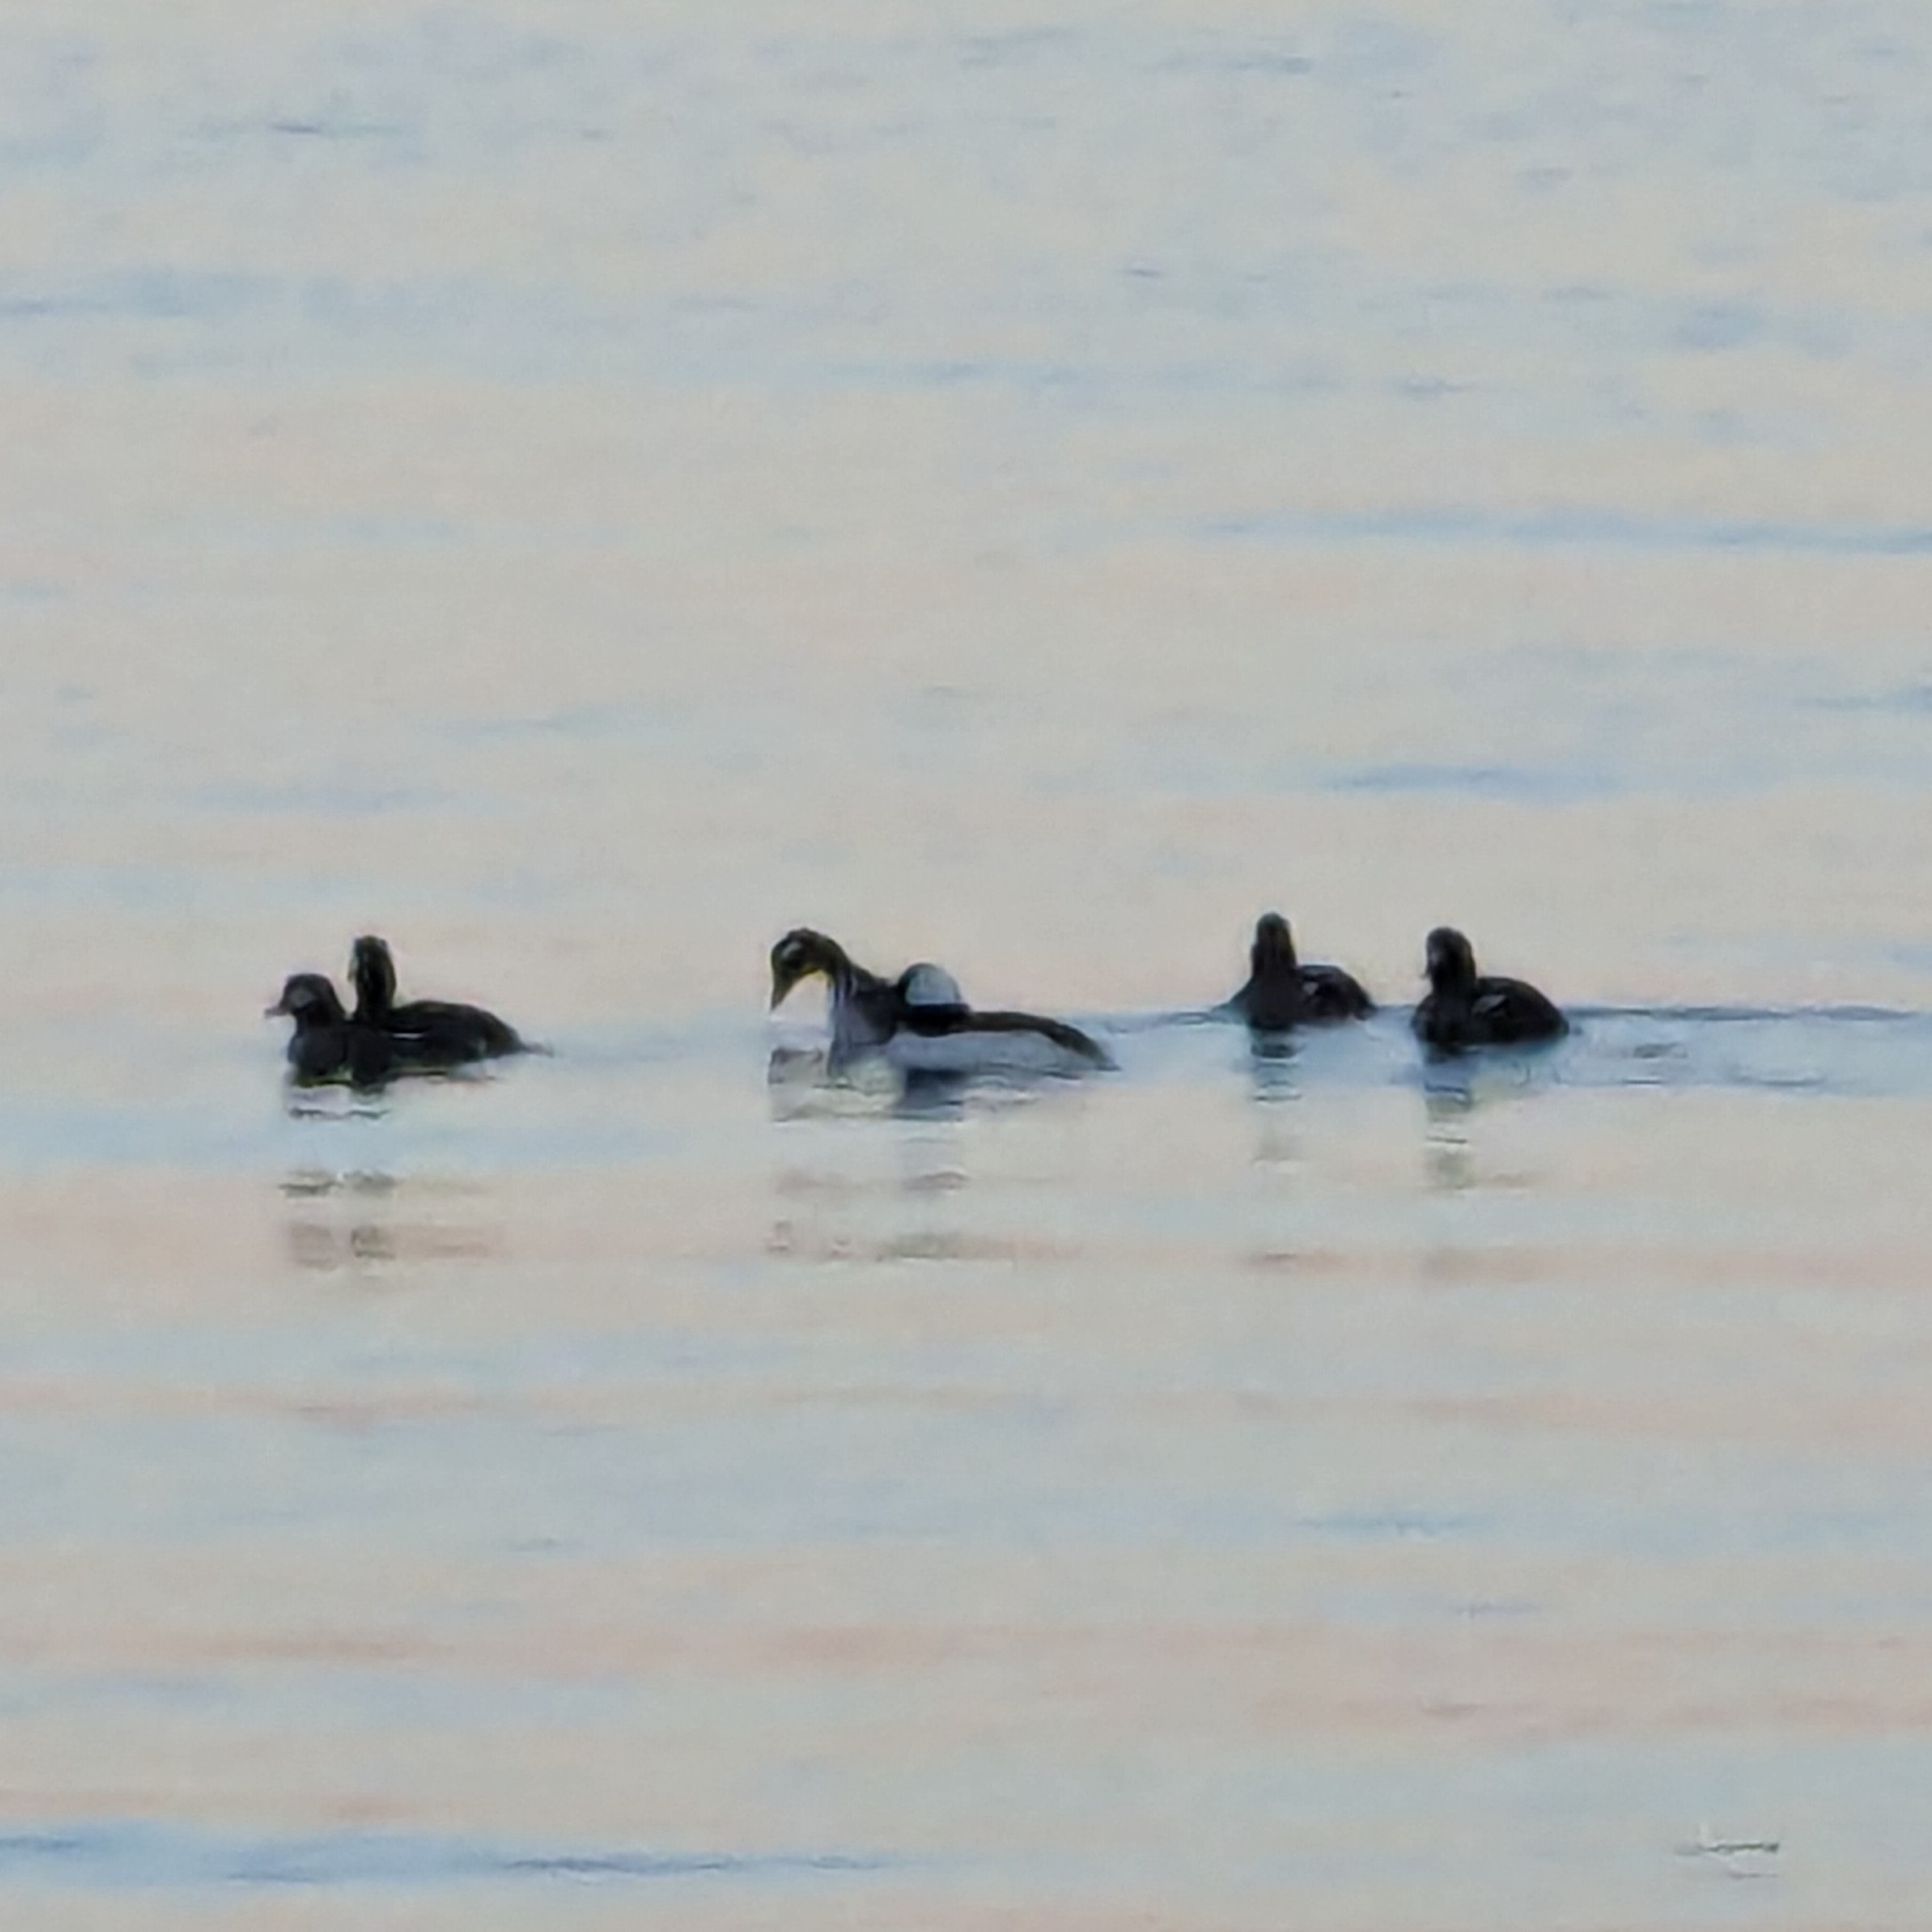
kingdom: Animalia
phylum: Chordata
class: Aves
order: Anseriformes
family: Anatidae
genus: Bucephala
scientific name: Bucephala albeola
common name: Bufflehead
